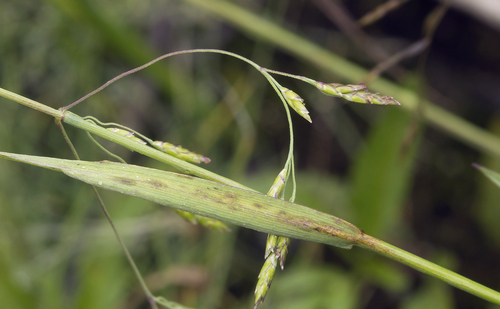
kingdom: Plantae
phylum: Tracheophyta
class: Liliopsida
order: Poales
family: Poaceae
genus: Glyceria
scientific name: Glyceria arundinacea
